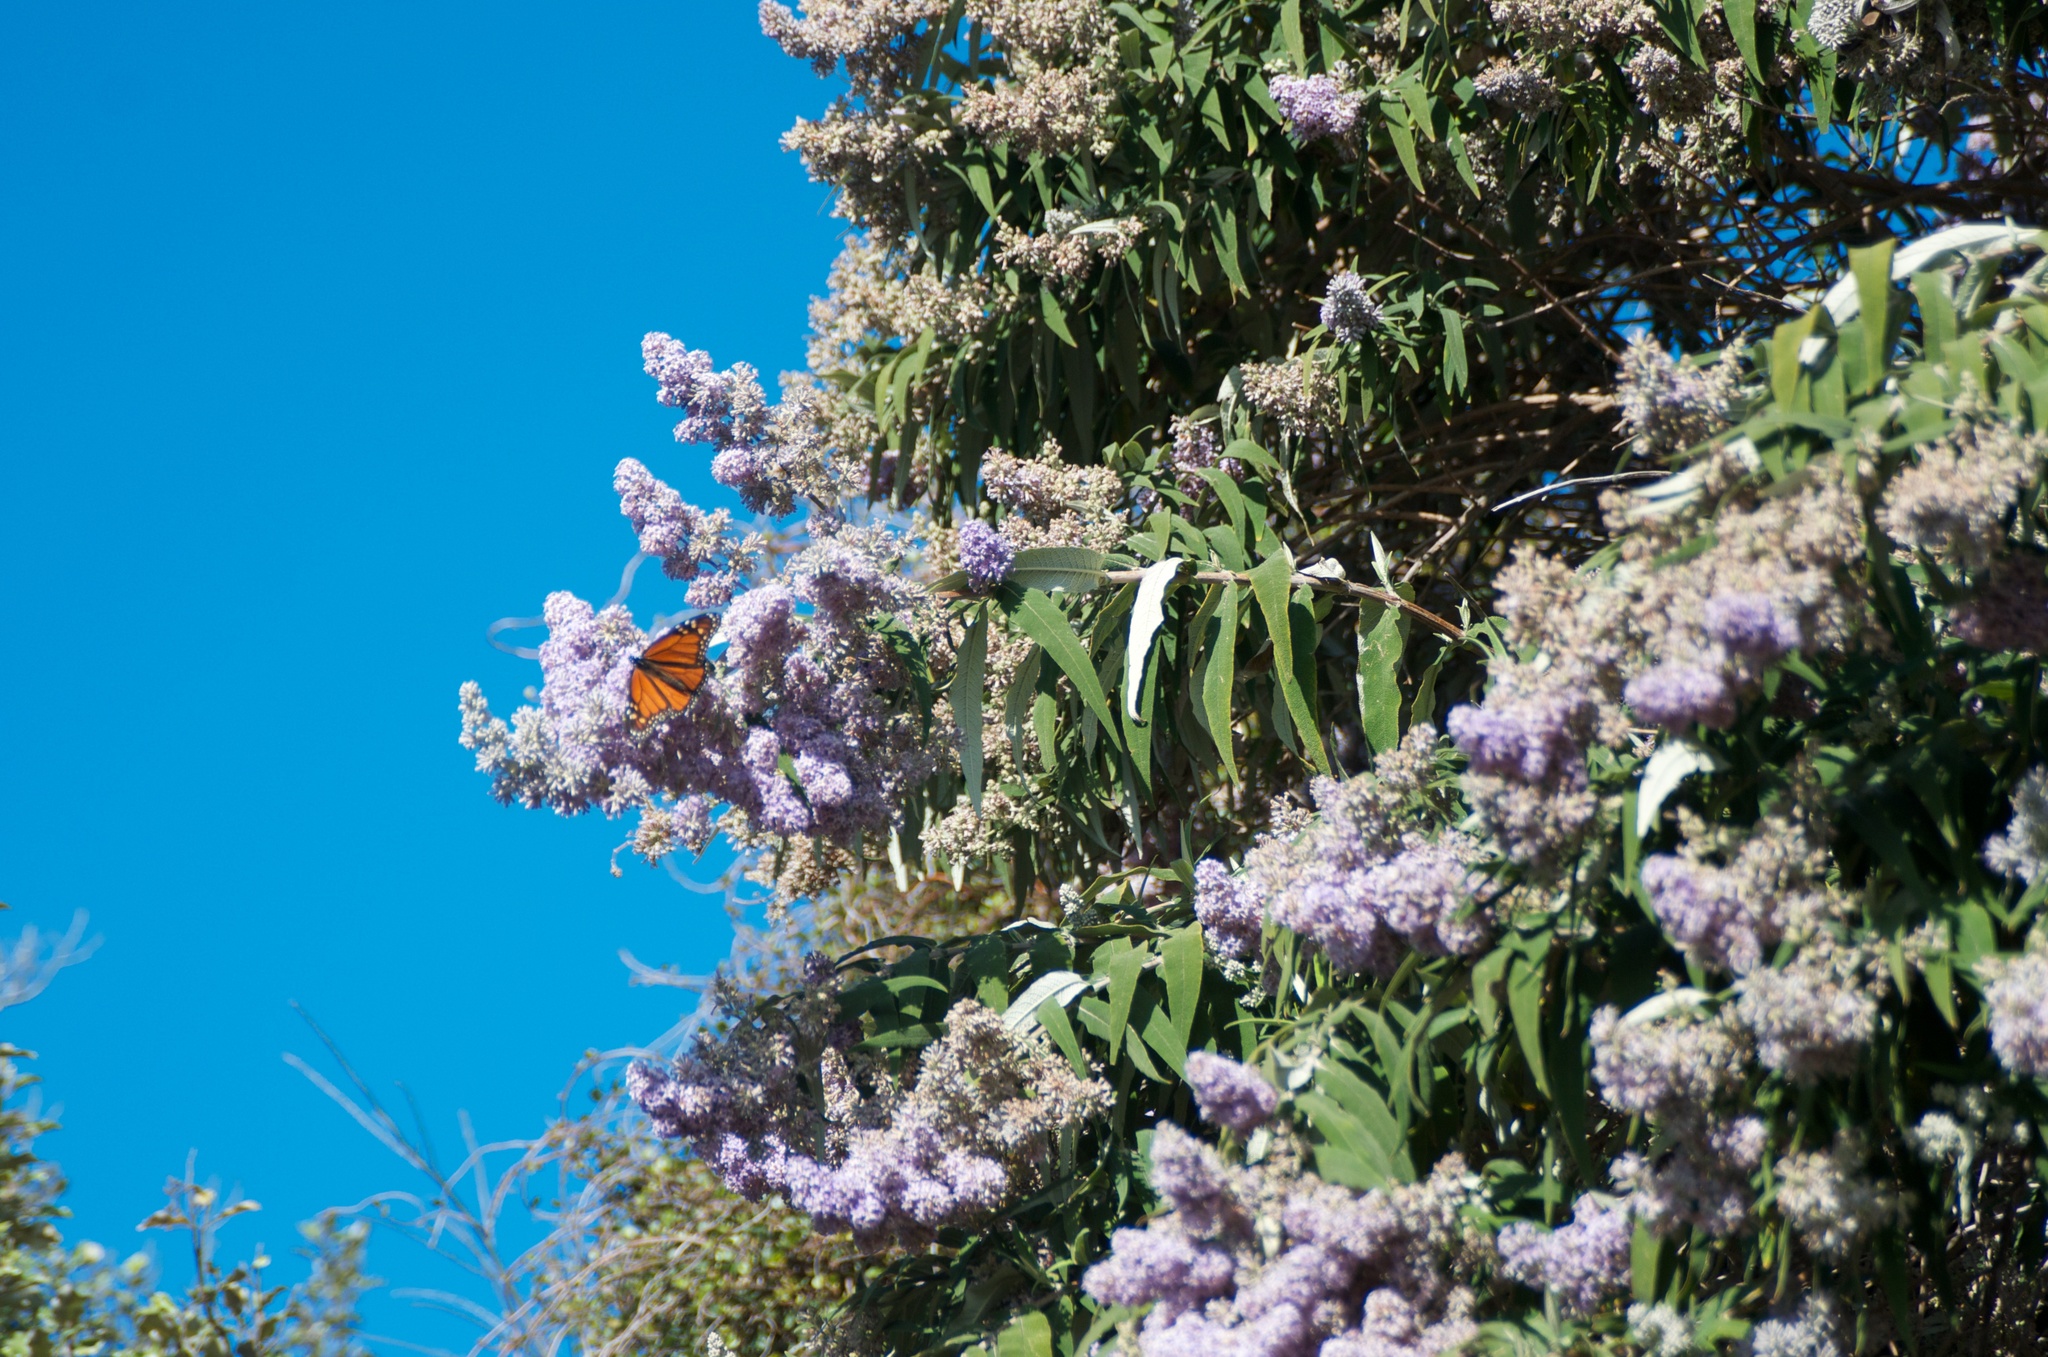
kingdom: Animalia
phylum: Arthropoda
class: Insecta
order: Lepidoptera
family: Nymphalidae
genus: Danaus
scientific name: Danaus plexippus
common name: Monarch
